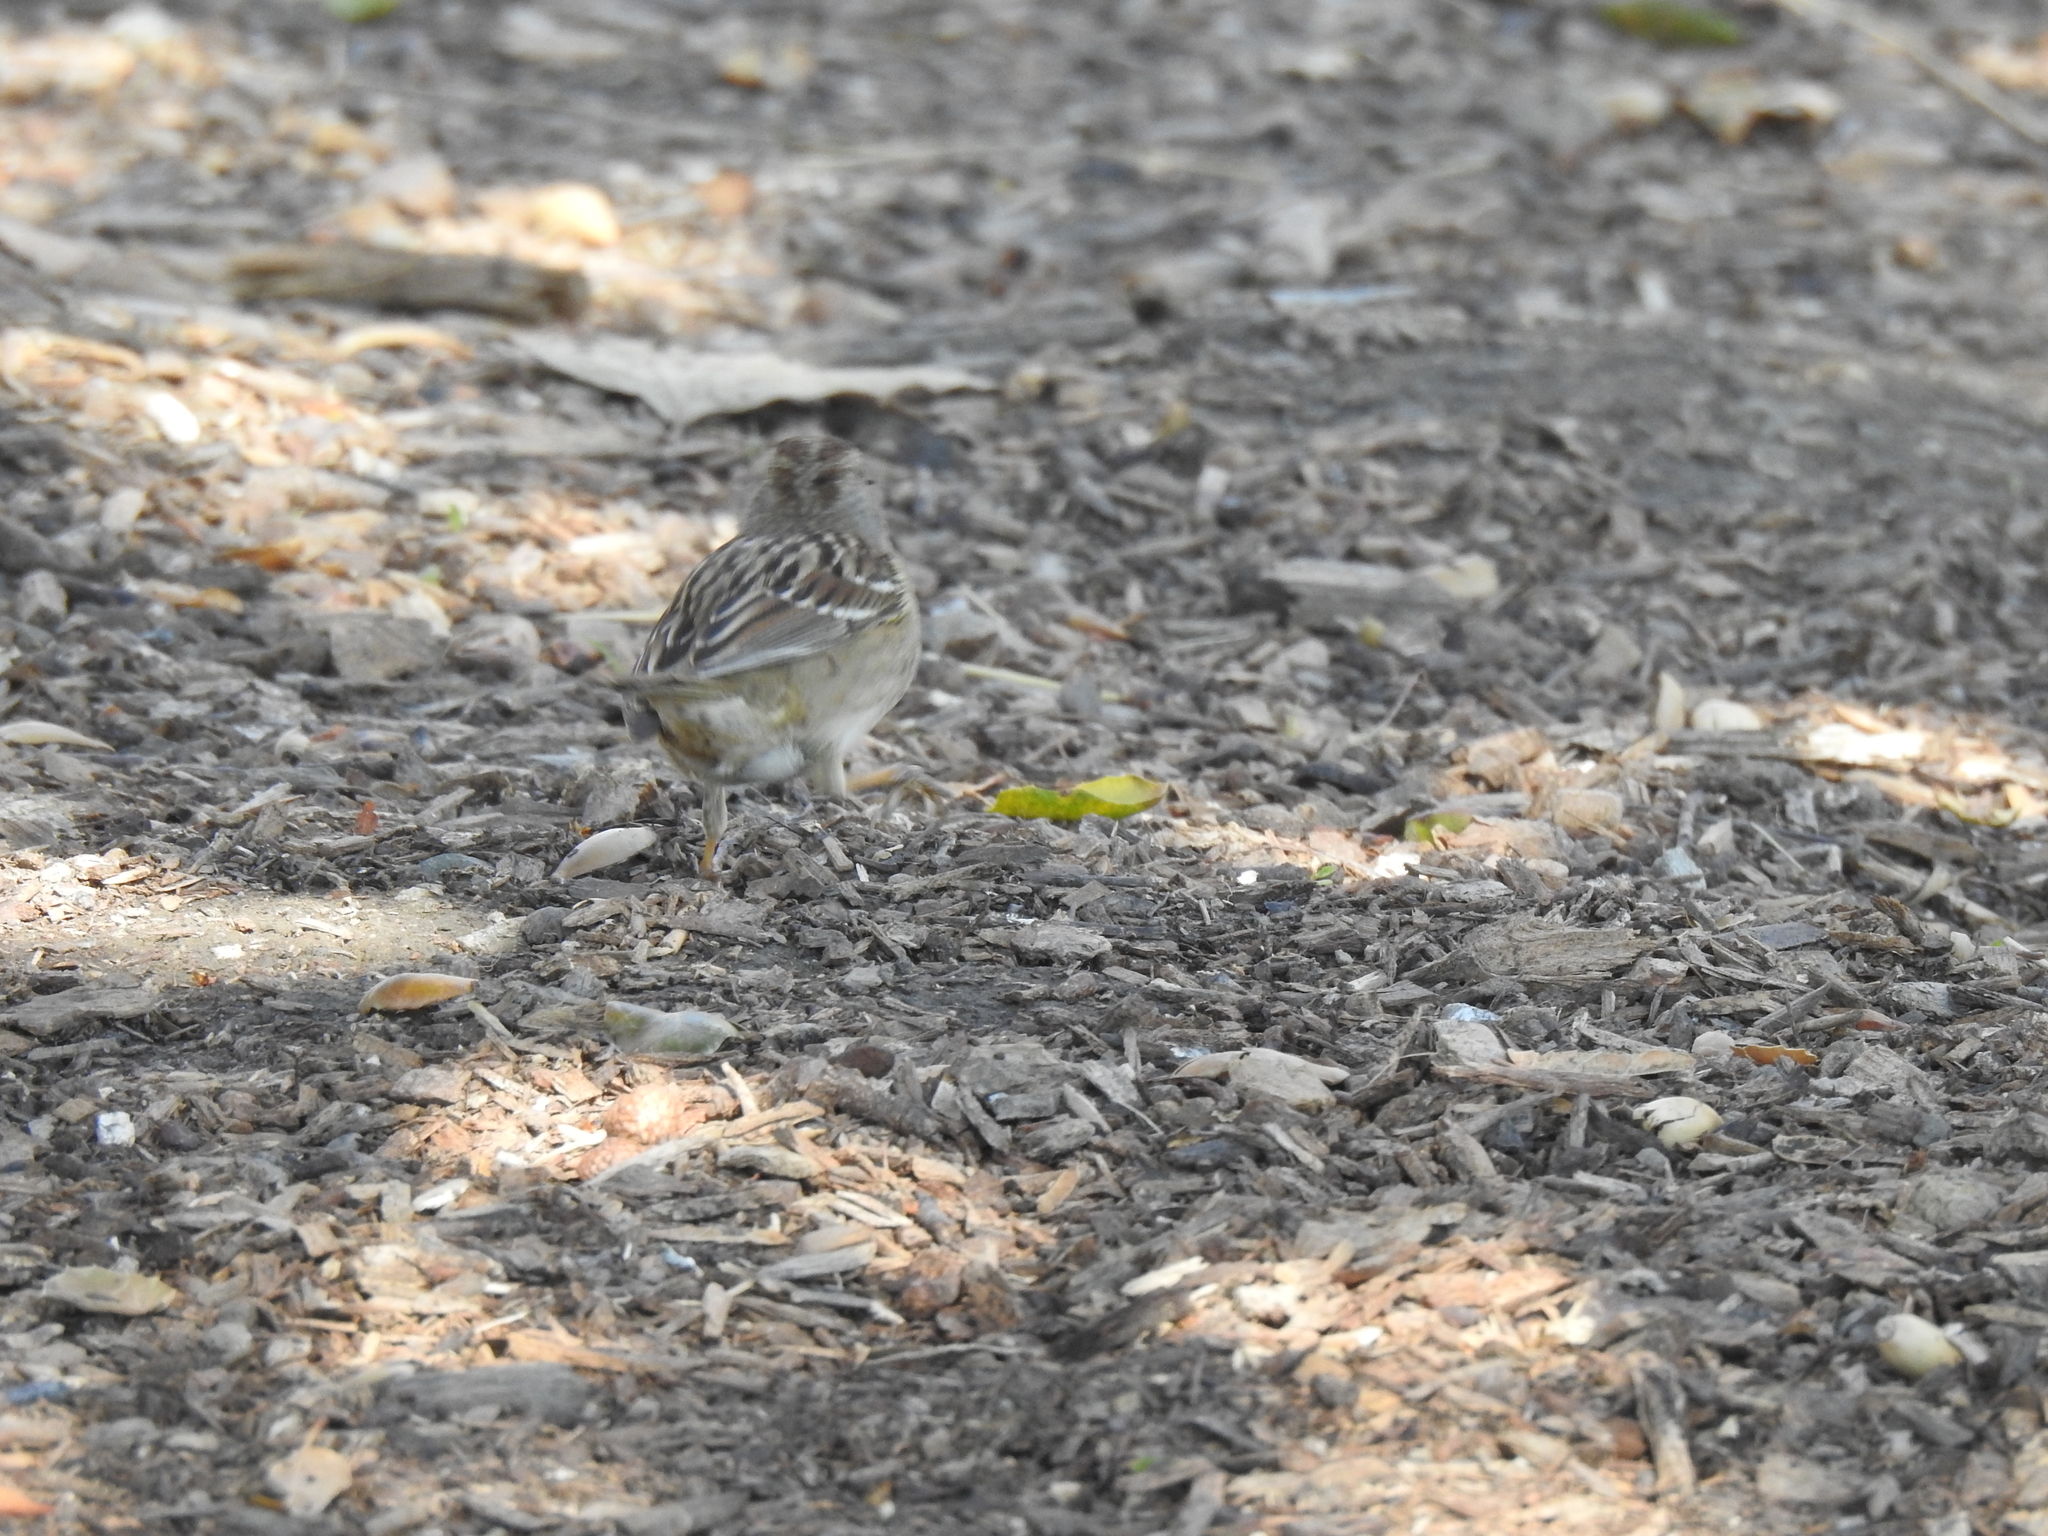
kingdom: Animalia
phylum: Chordata
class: Aves
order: Passeriformes
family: Passerellidae
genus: Zonotrichia
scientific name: Zonotrichia leucophrys
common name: White-crowned sparrow
